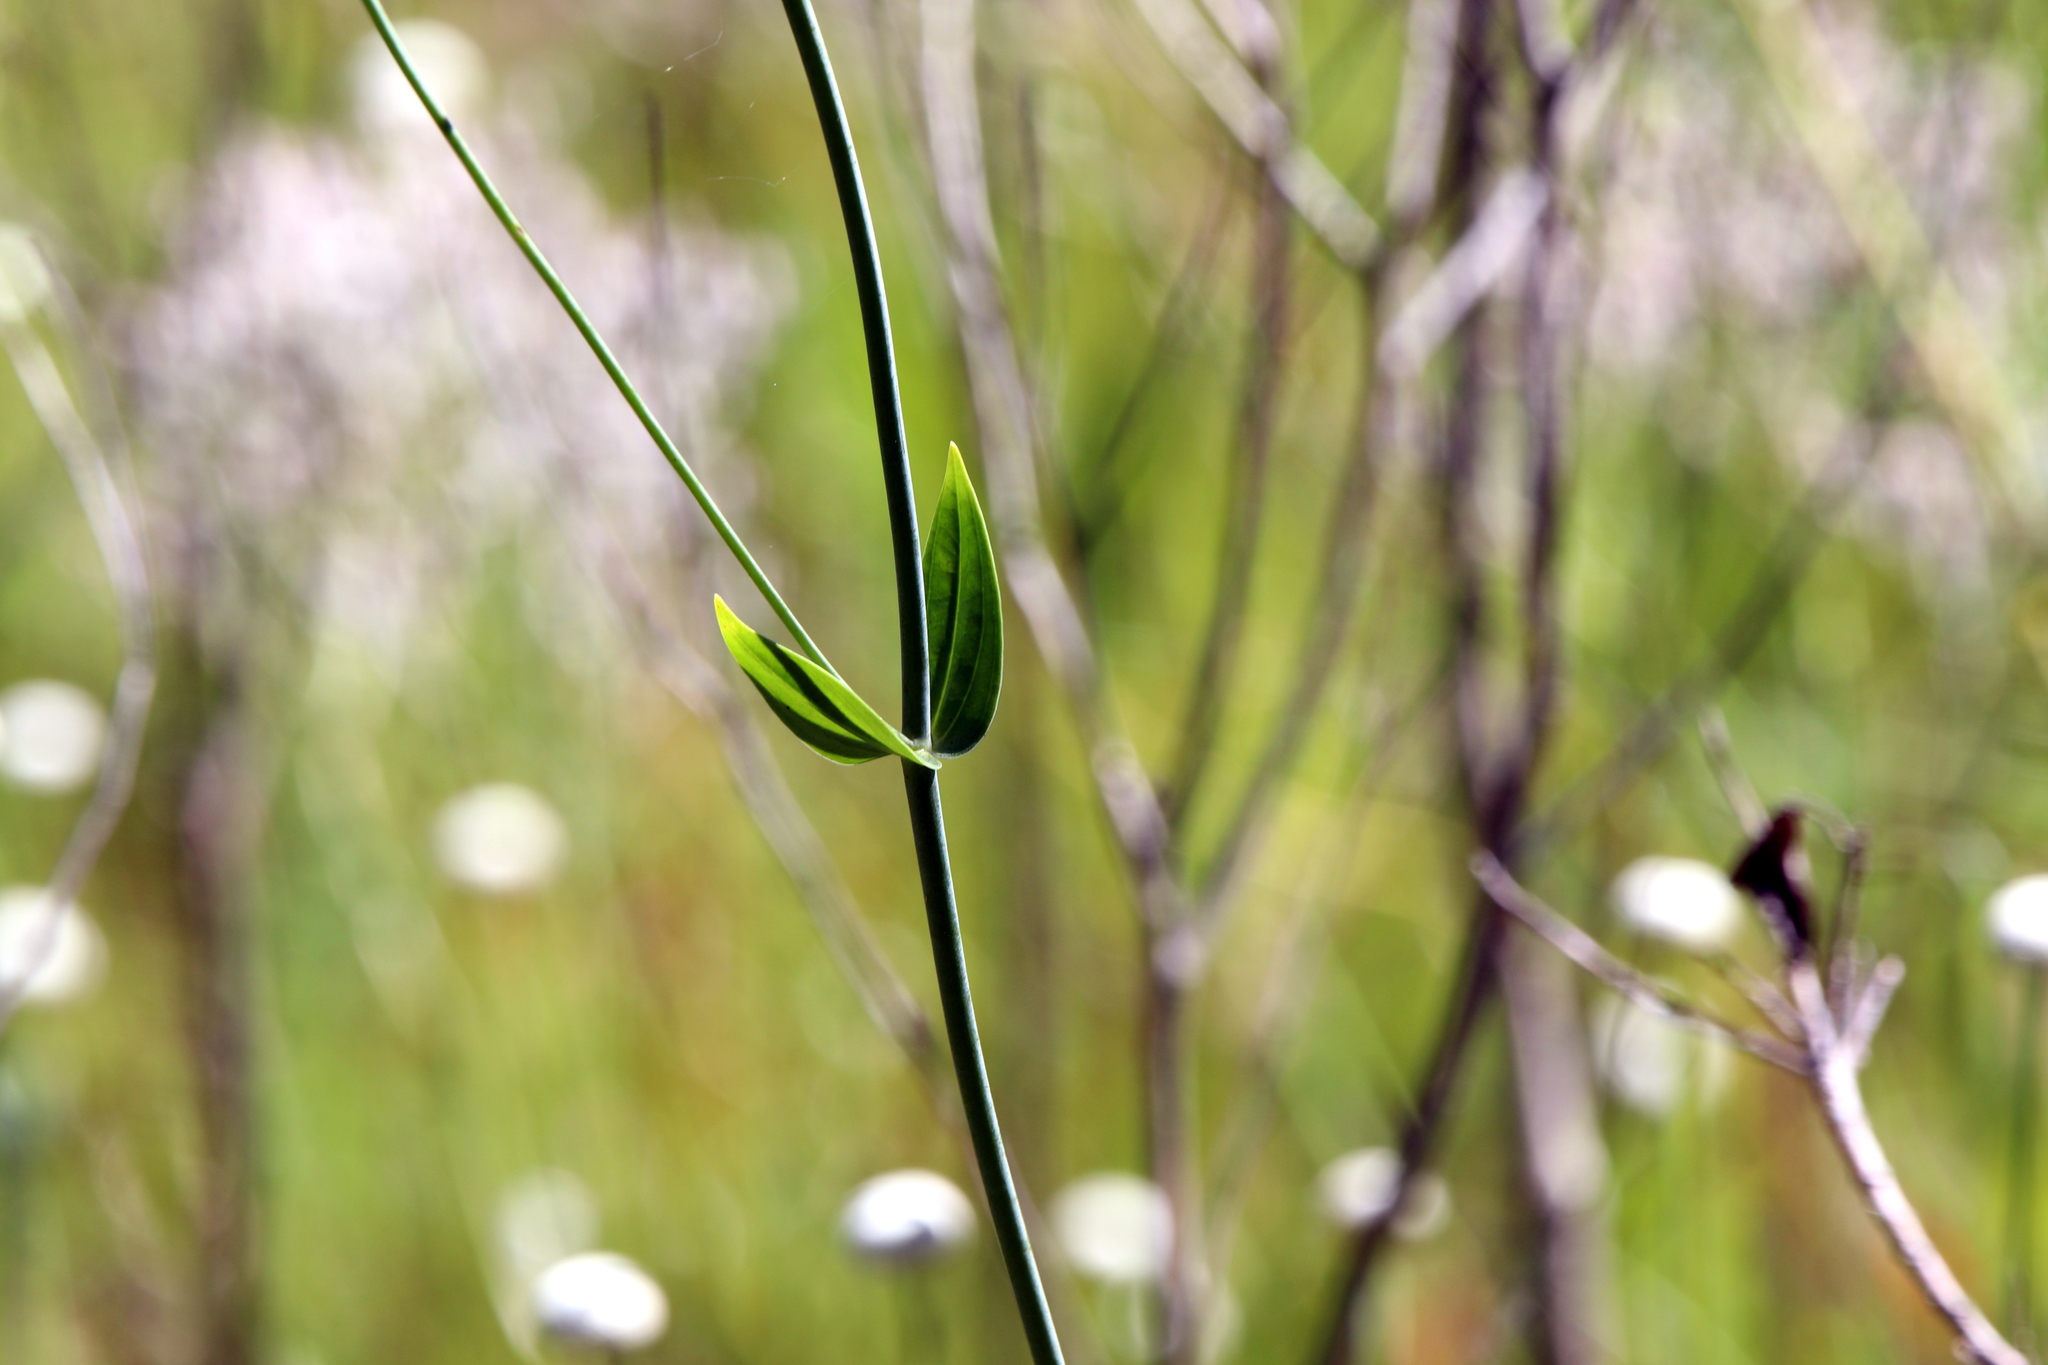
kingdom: Plantae
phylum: Tracheophyta
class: Magnoliopsida
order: Gentianales
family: Gentianaceae
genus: Sabatia
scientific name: Sabatia macrophylla
